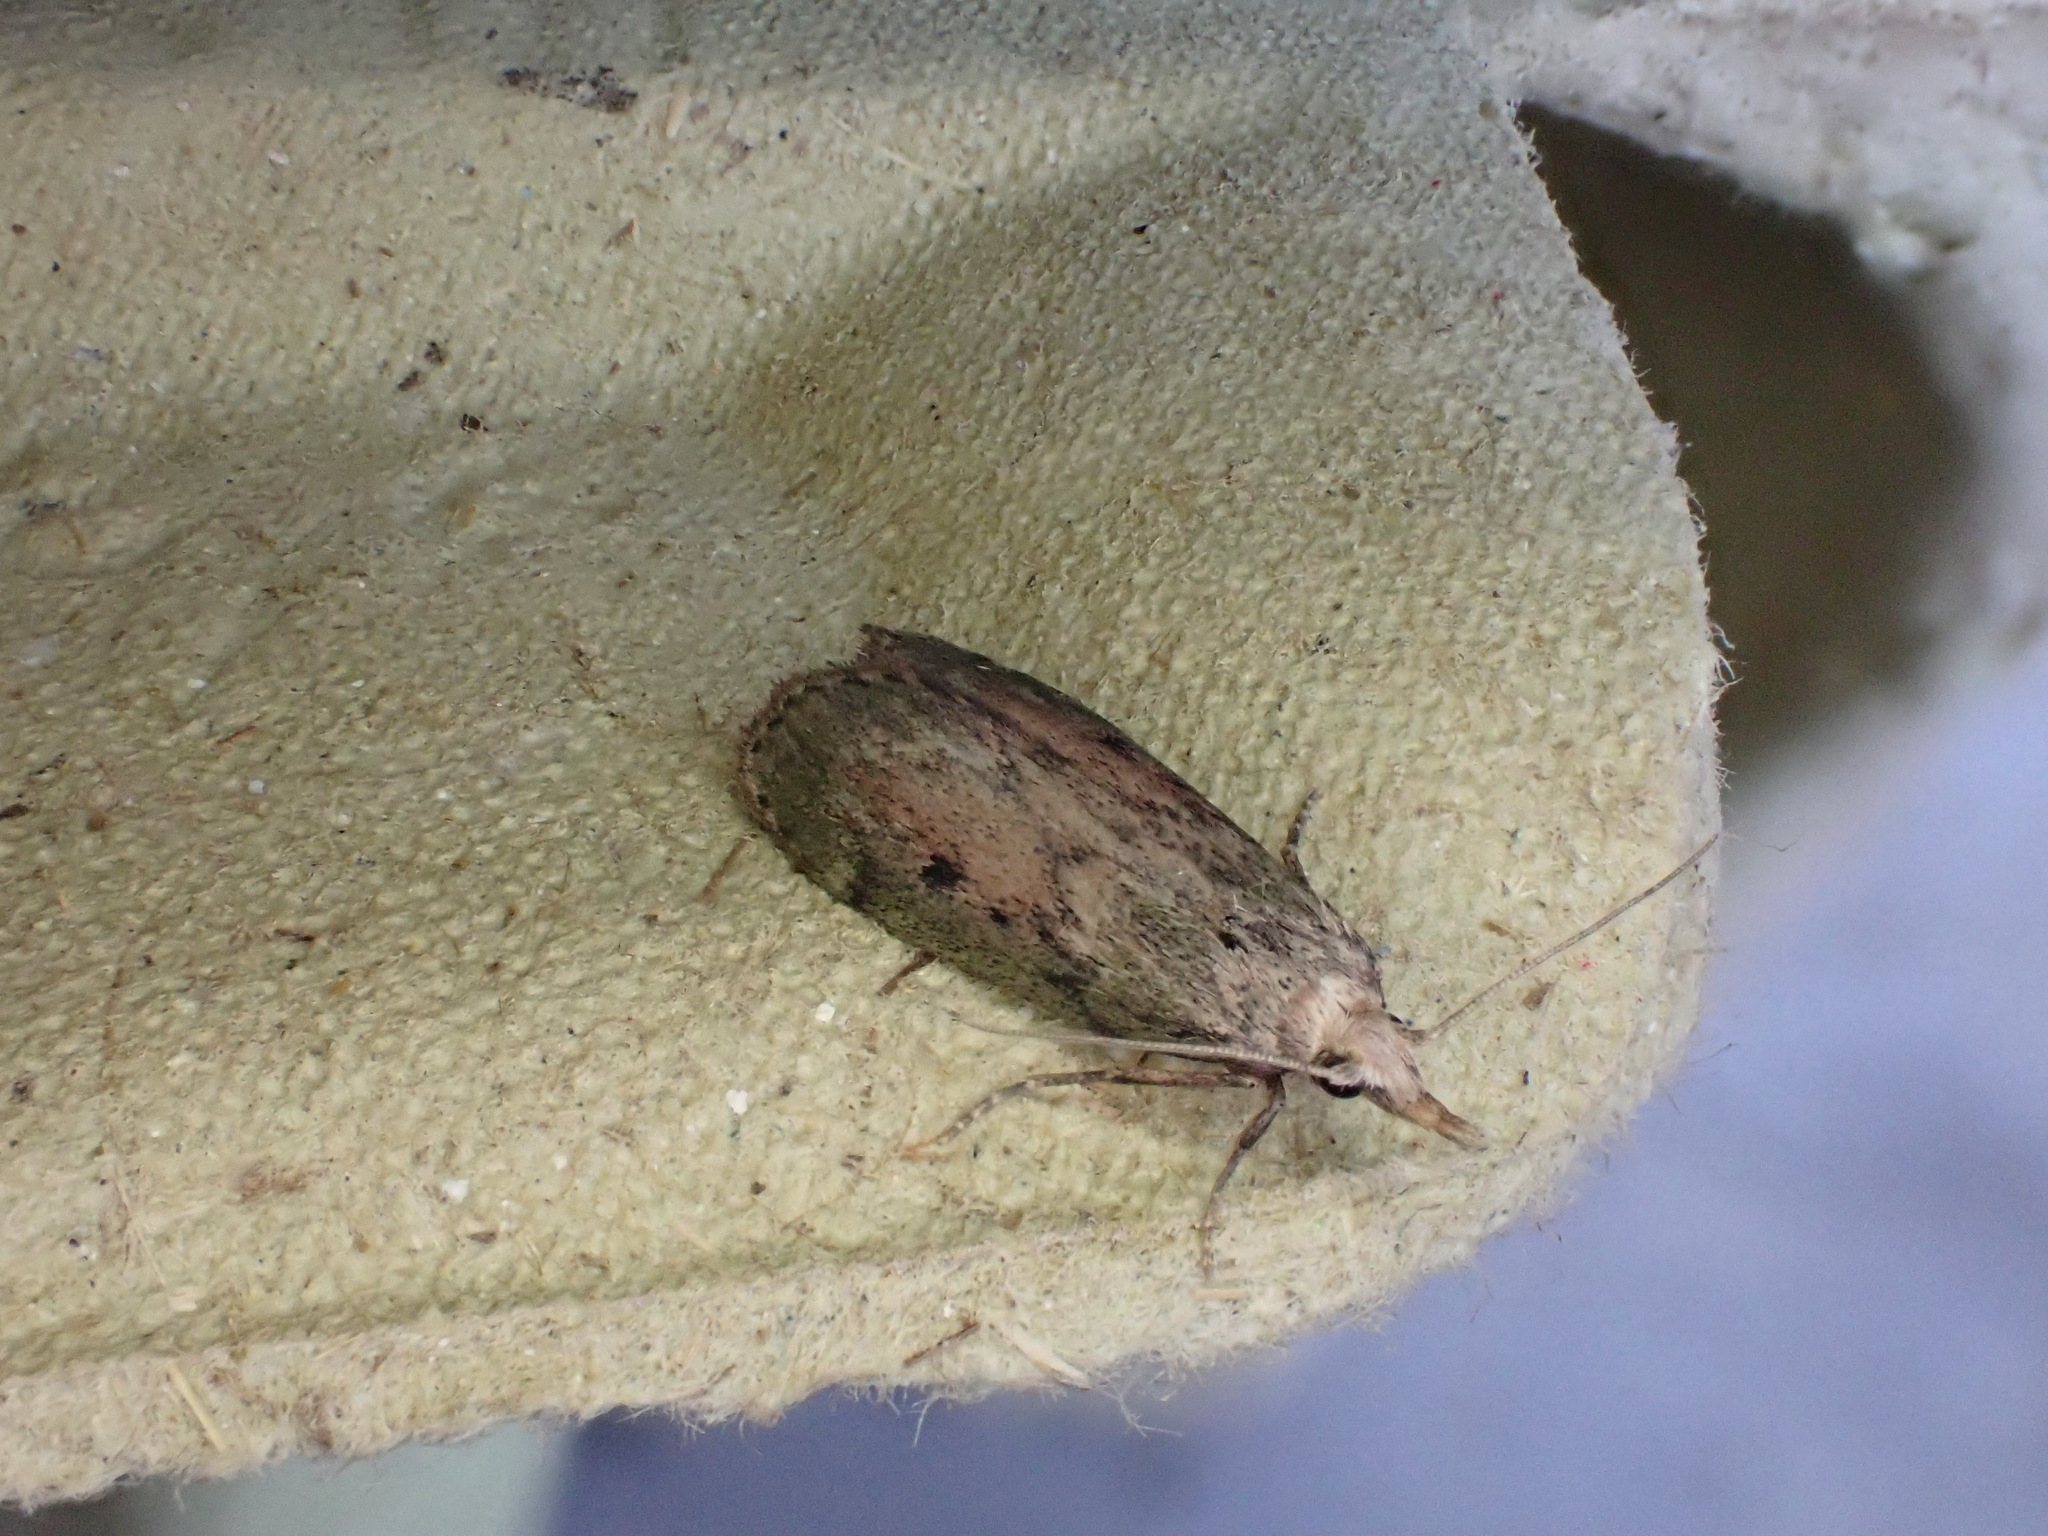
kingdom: Animalia
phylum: Arthropoda
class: Insecta
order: Lepidoptera
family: Pyralidae
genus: Aphomia
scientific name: Aphomia sociella
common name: Bee moth
